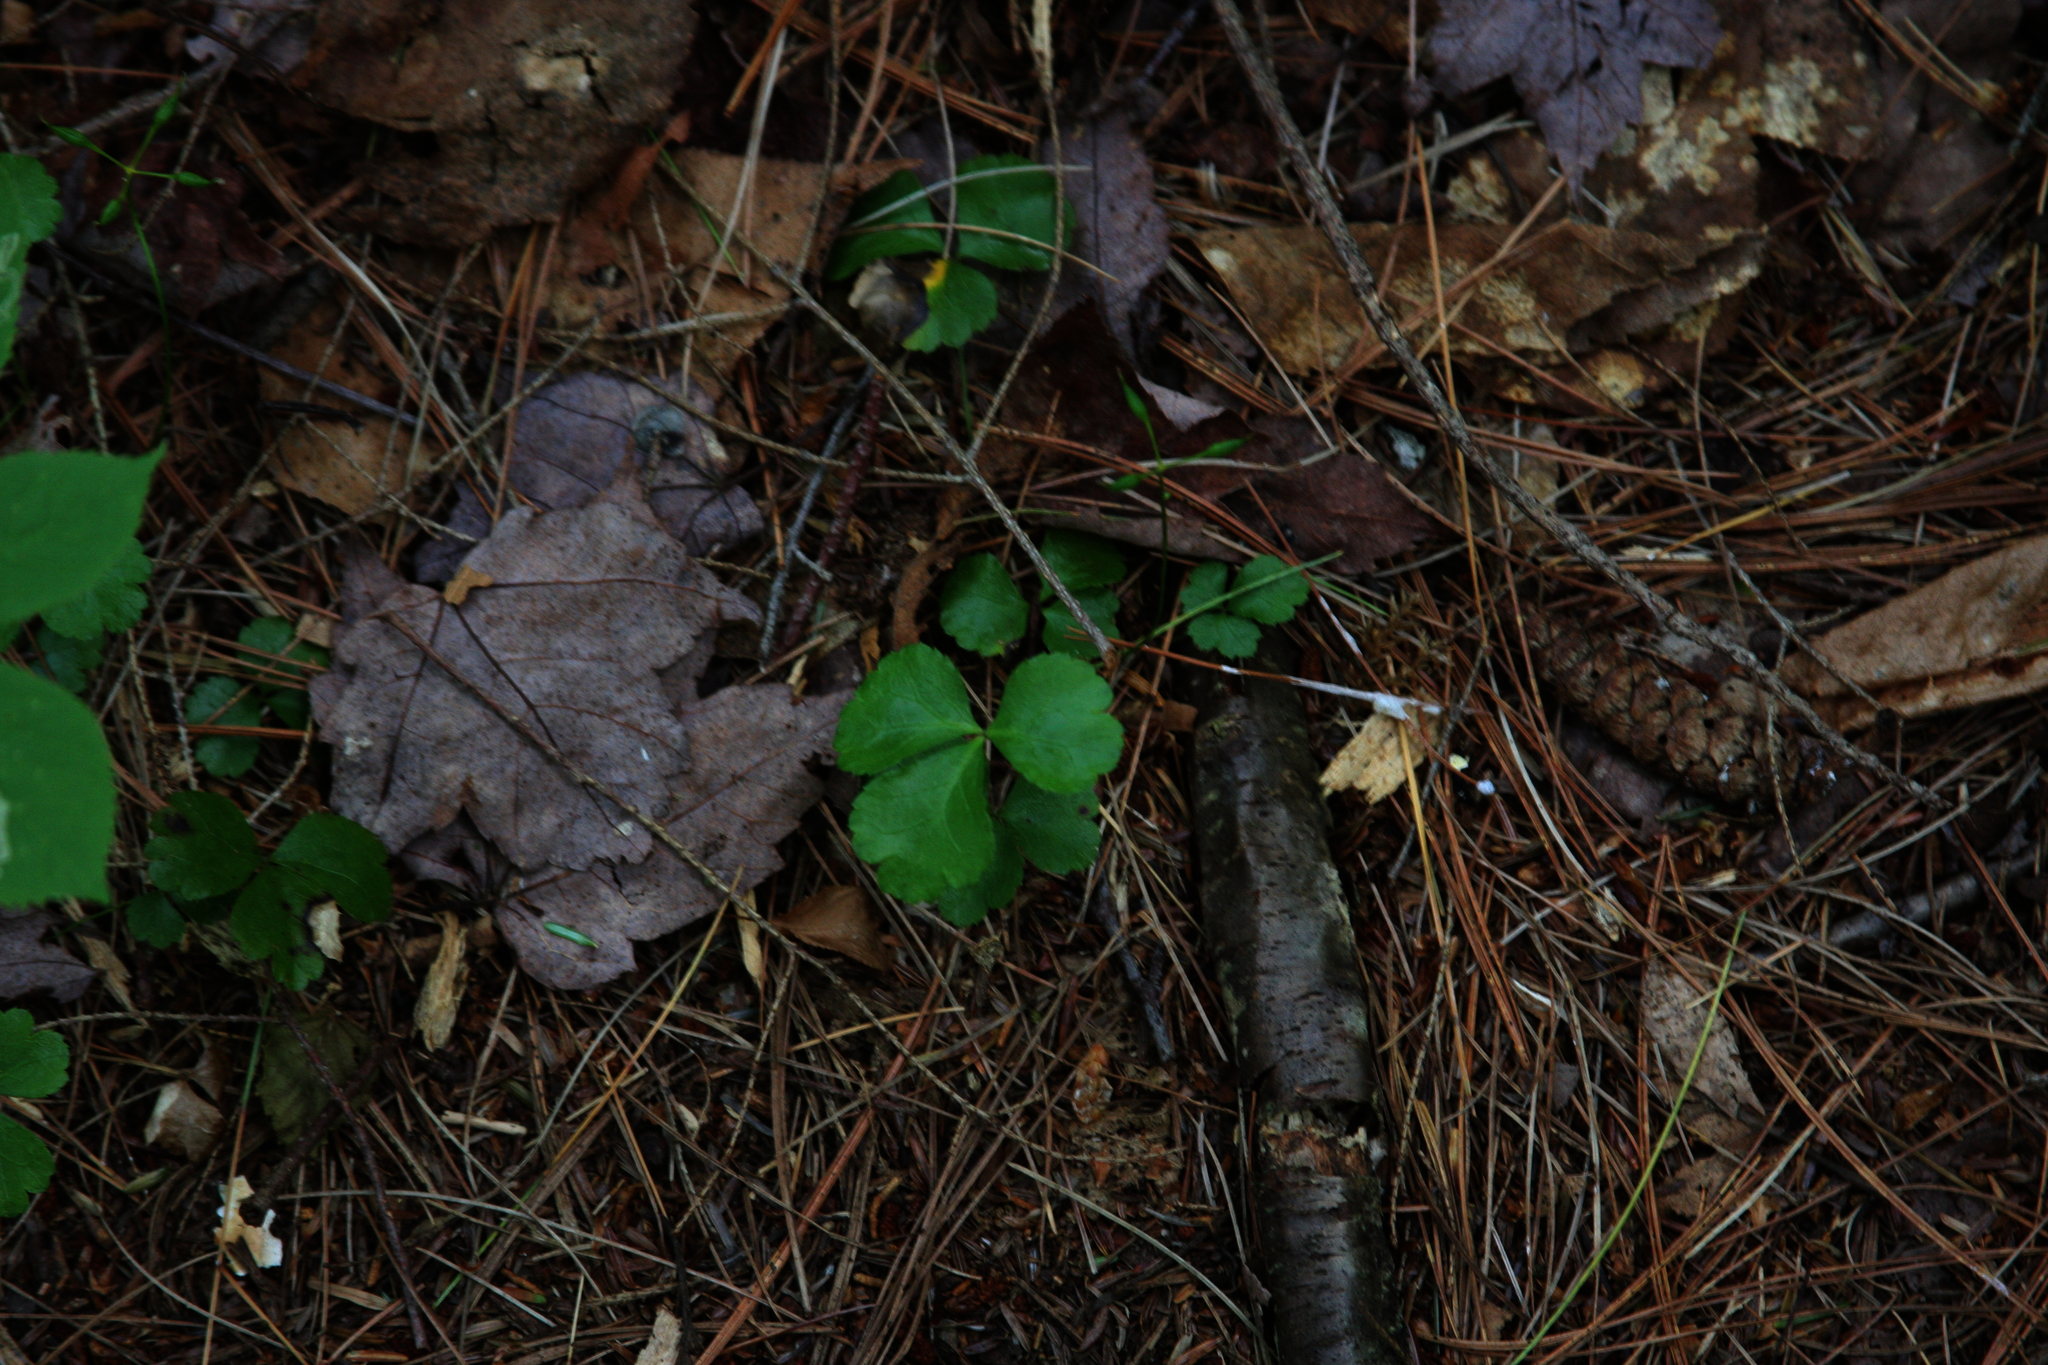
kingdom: Plantae
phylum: Tracheophyta
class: Magnoliopsida
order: Ranunculales
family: Ranunculaceae
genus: Coptis
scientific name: Coptis trifolia
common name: Canker-root
